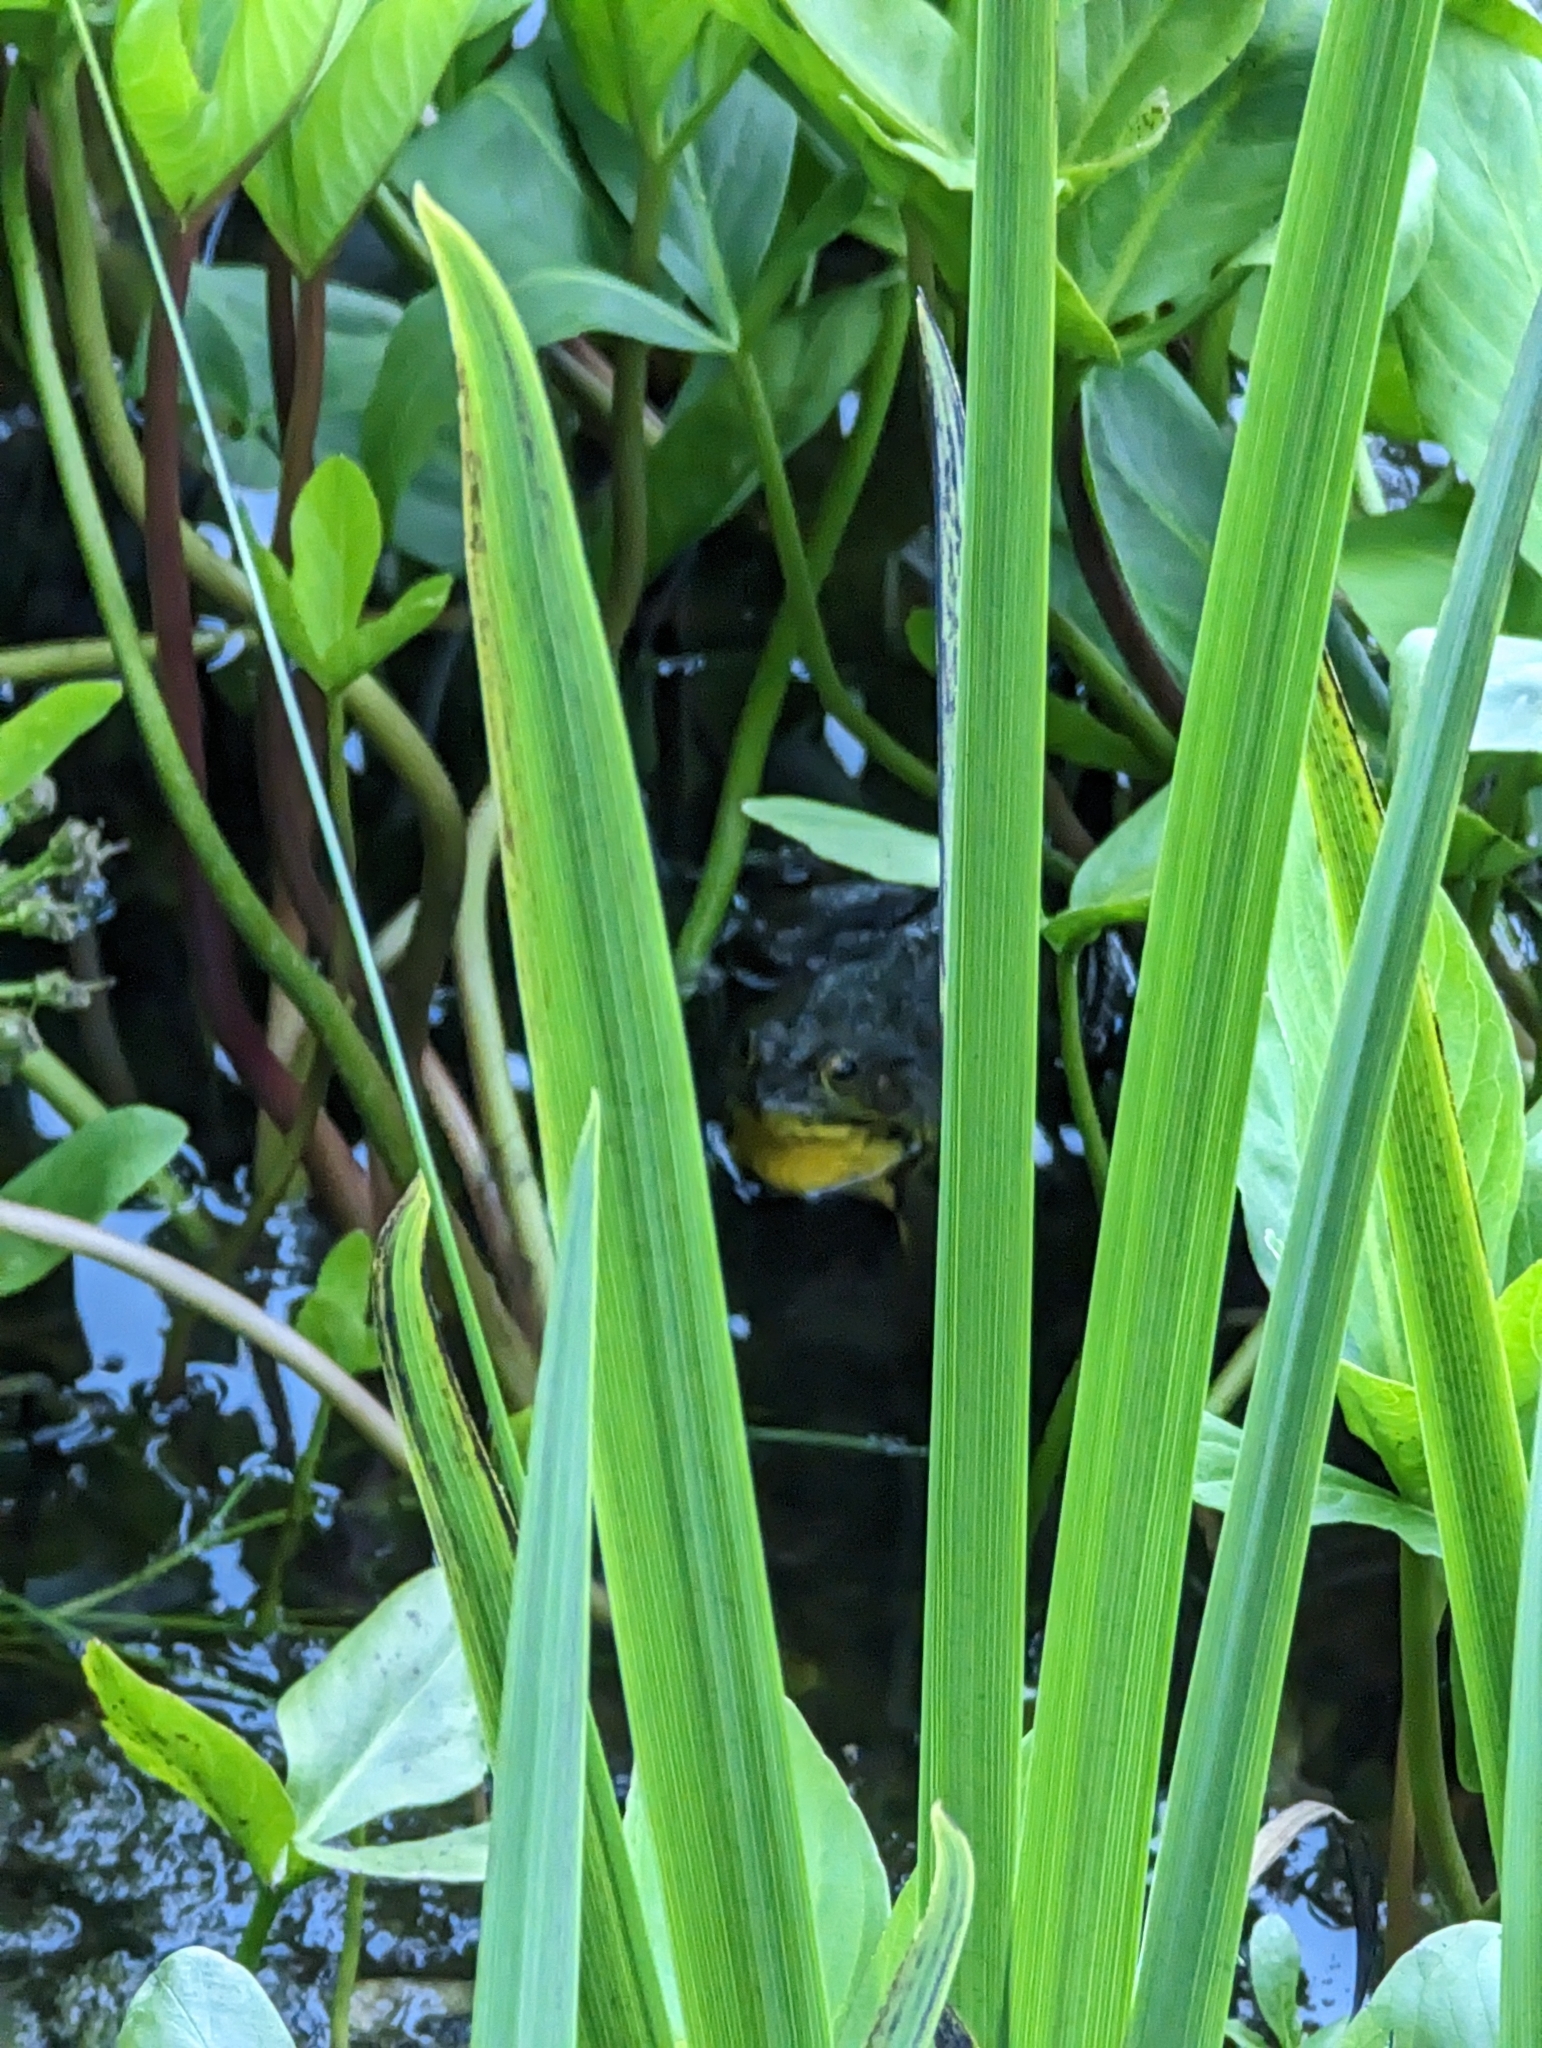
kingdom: Animalia
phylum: Chordata
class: Amphibia
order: Anura
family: Ranidae
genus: Lithobates
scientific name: Lithobates clamitans
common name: Green frog
